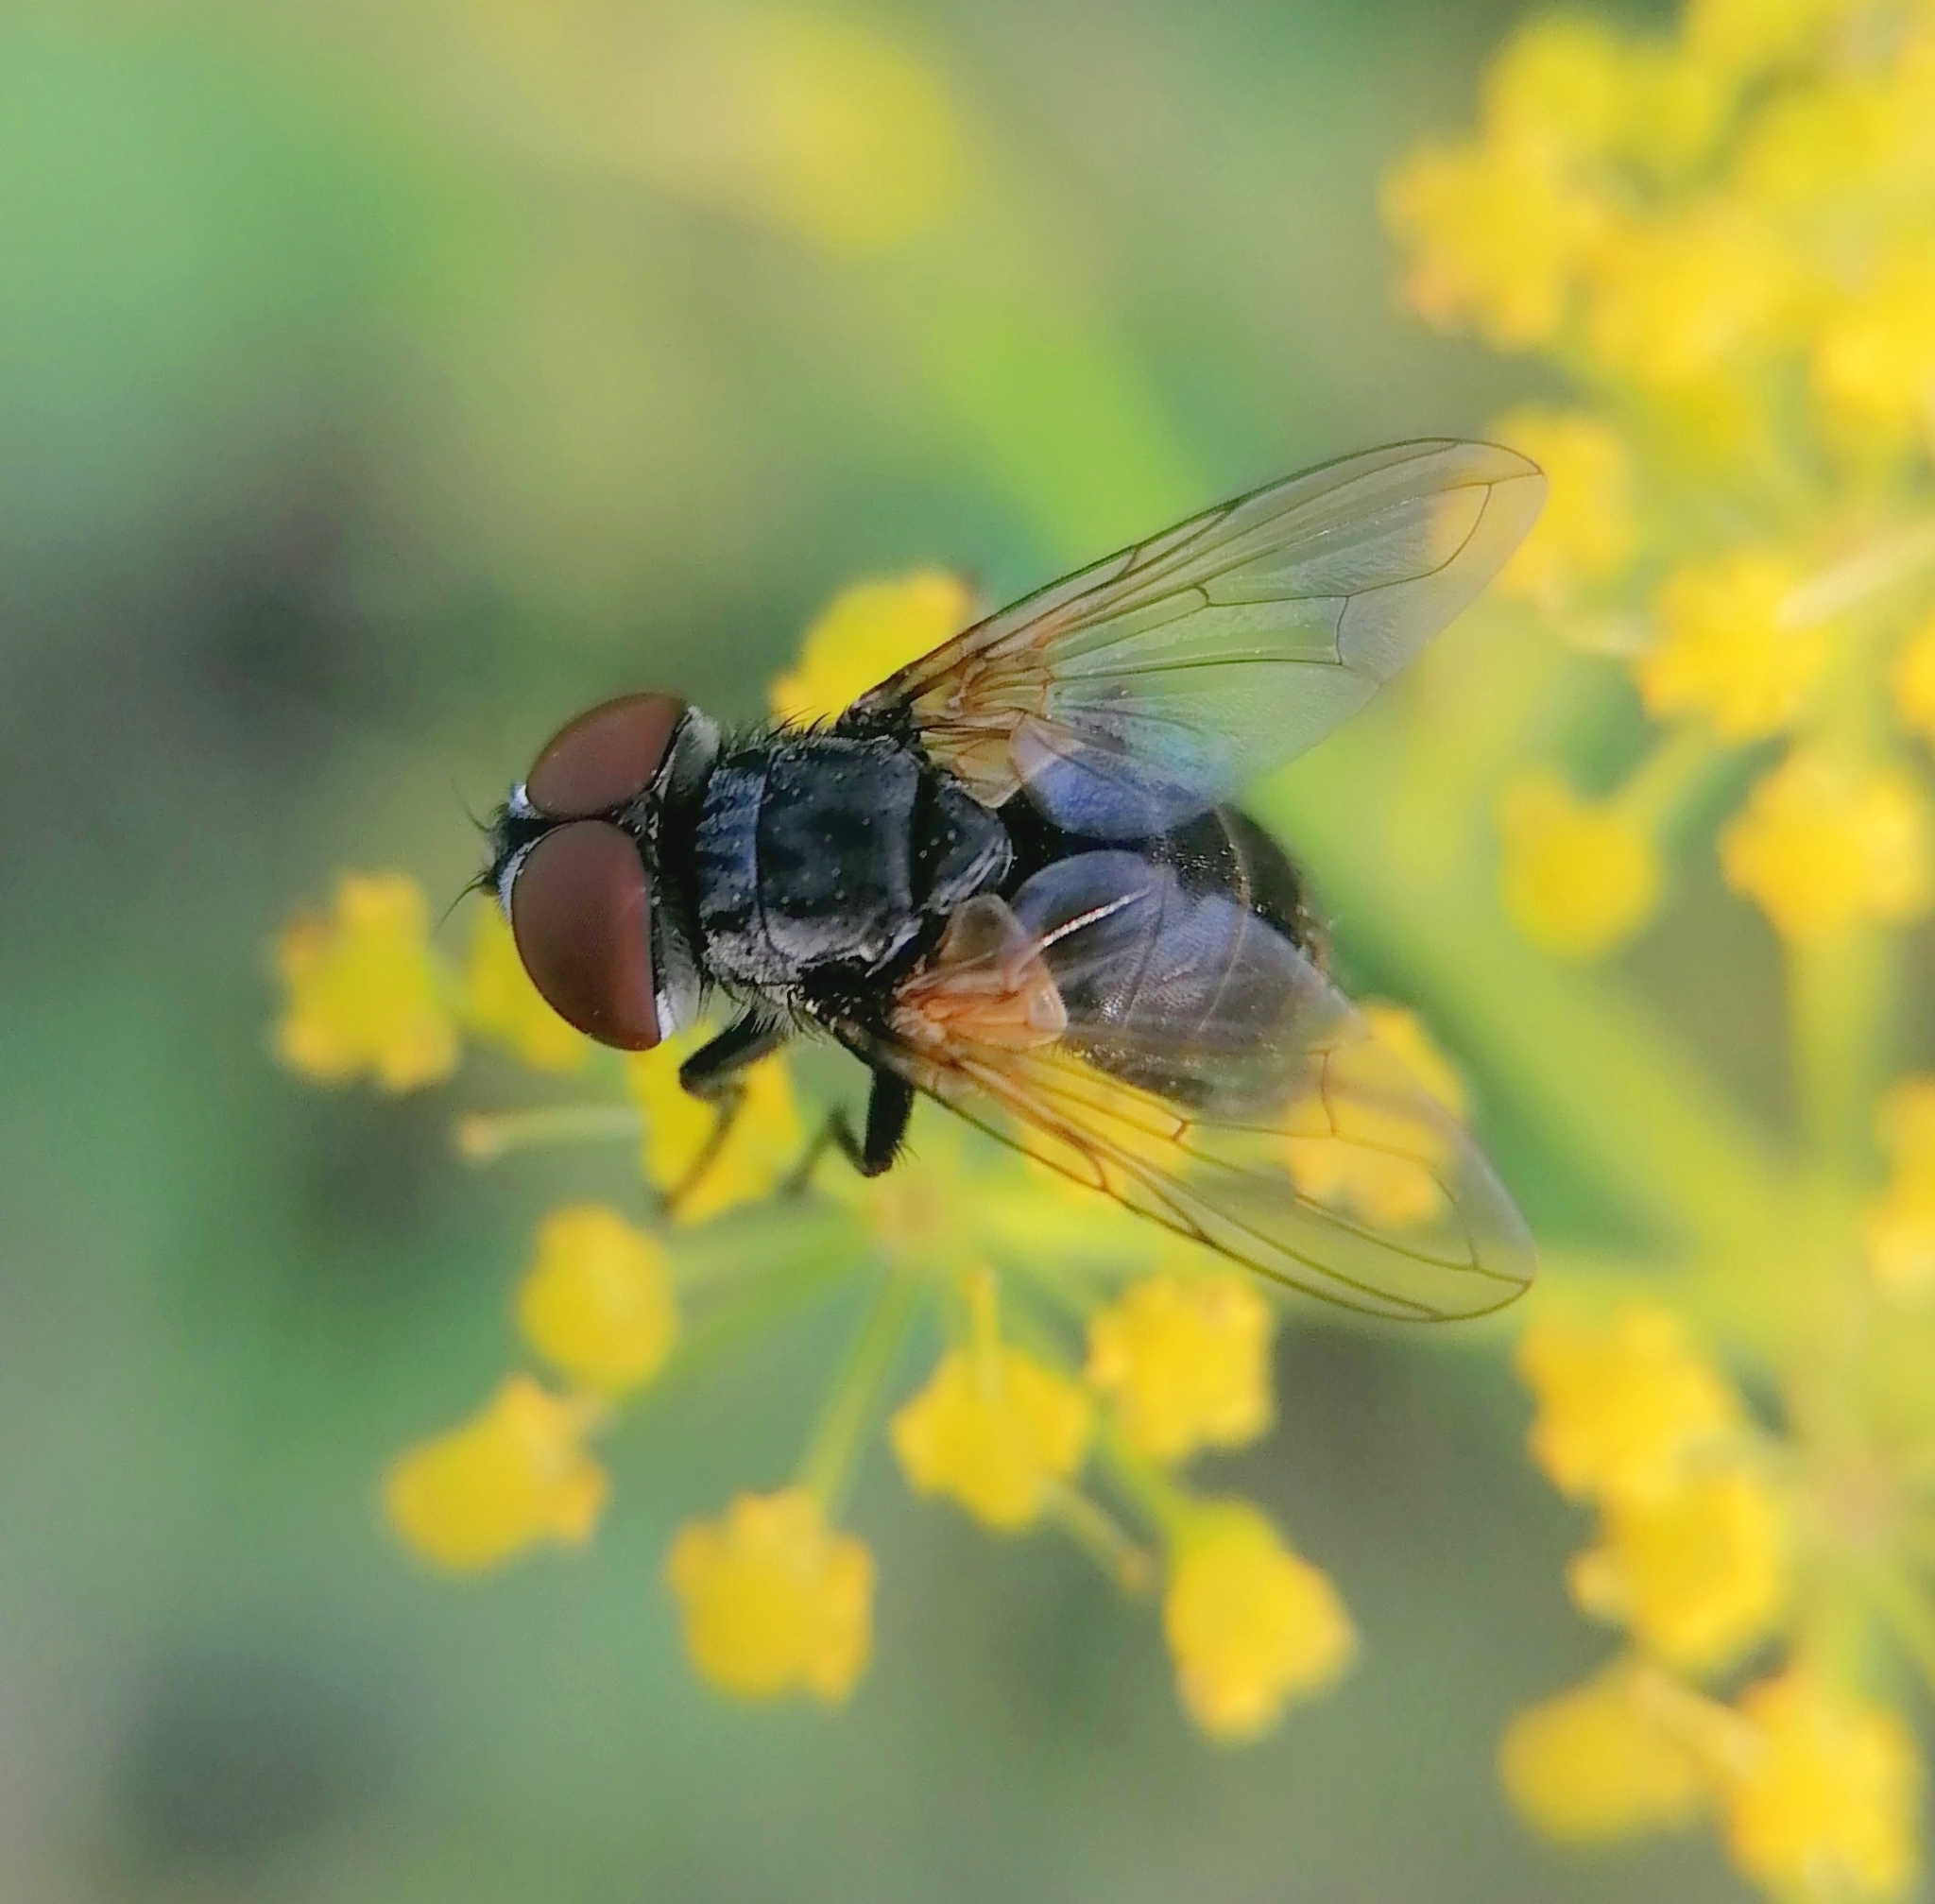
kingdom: Animalia
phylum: Arthropoda
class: Insecta
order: Diptera
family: Tachinidae
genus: Phasia
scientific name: Phasia obesa
